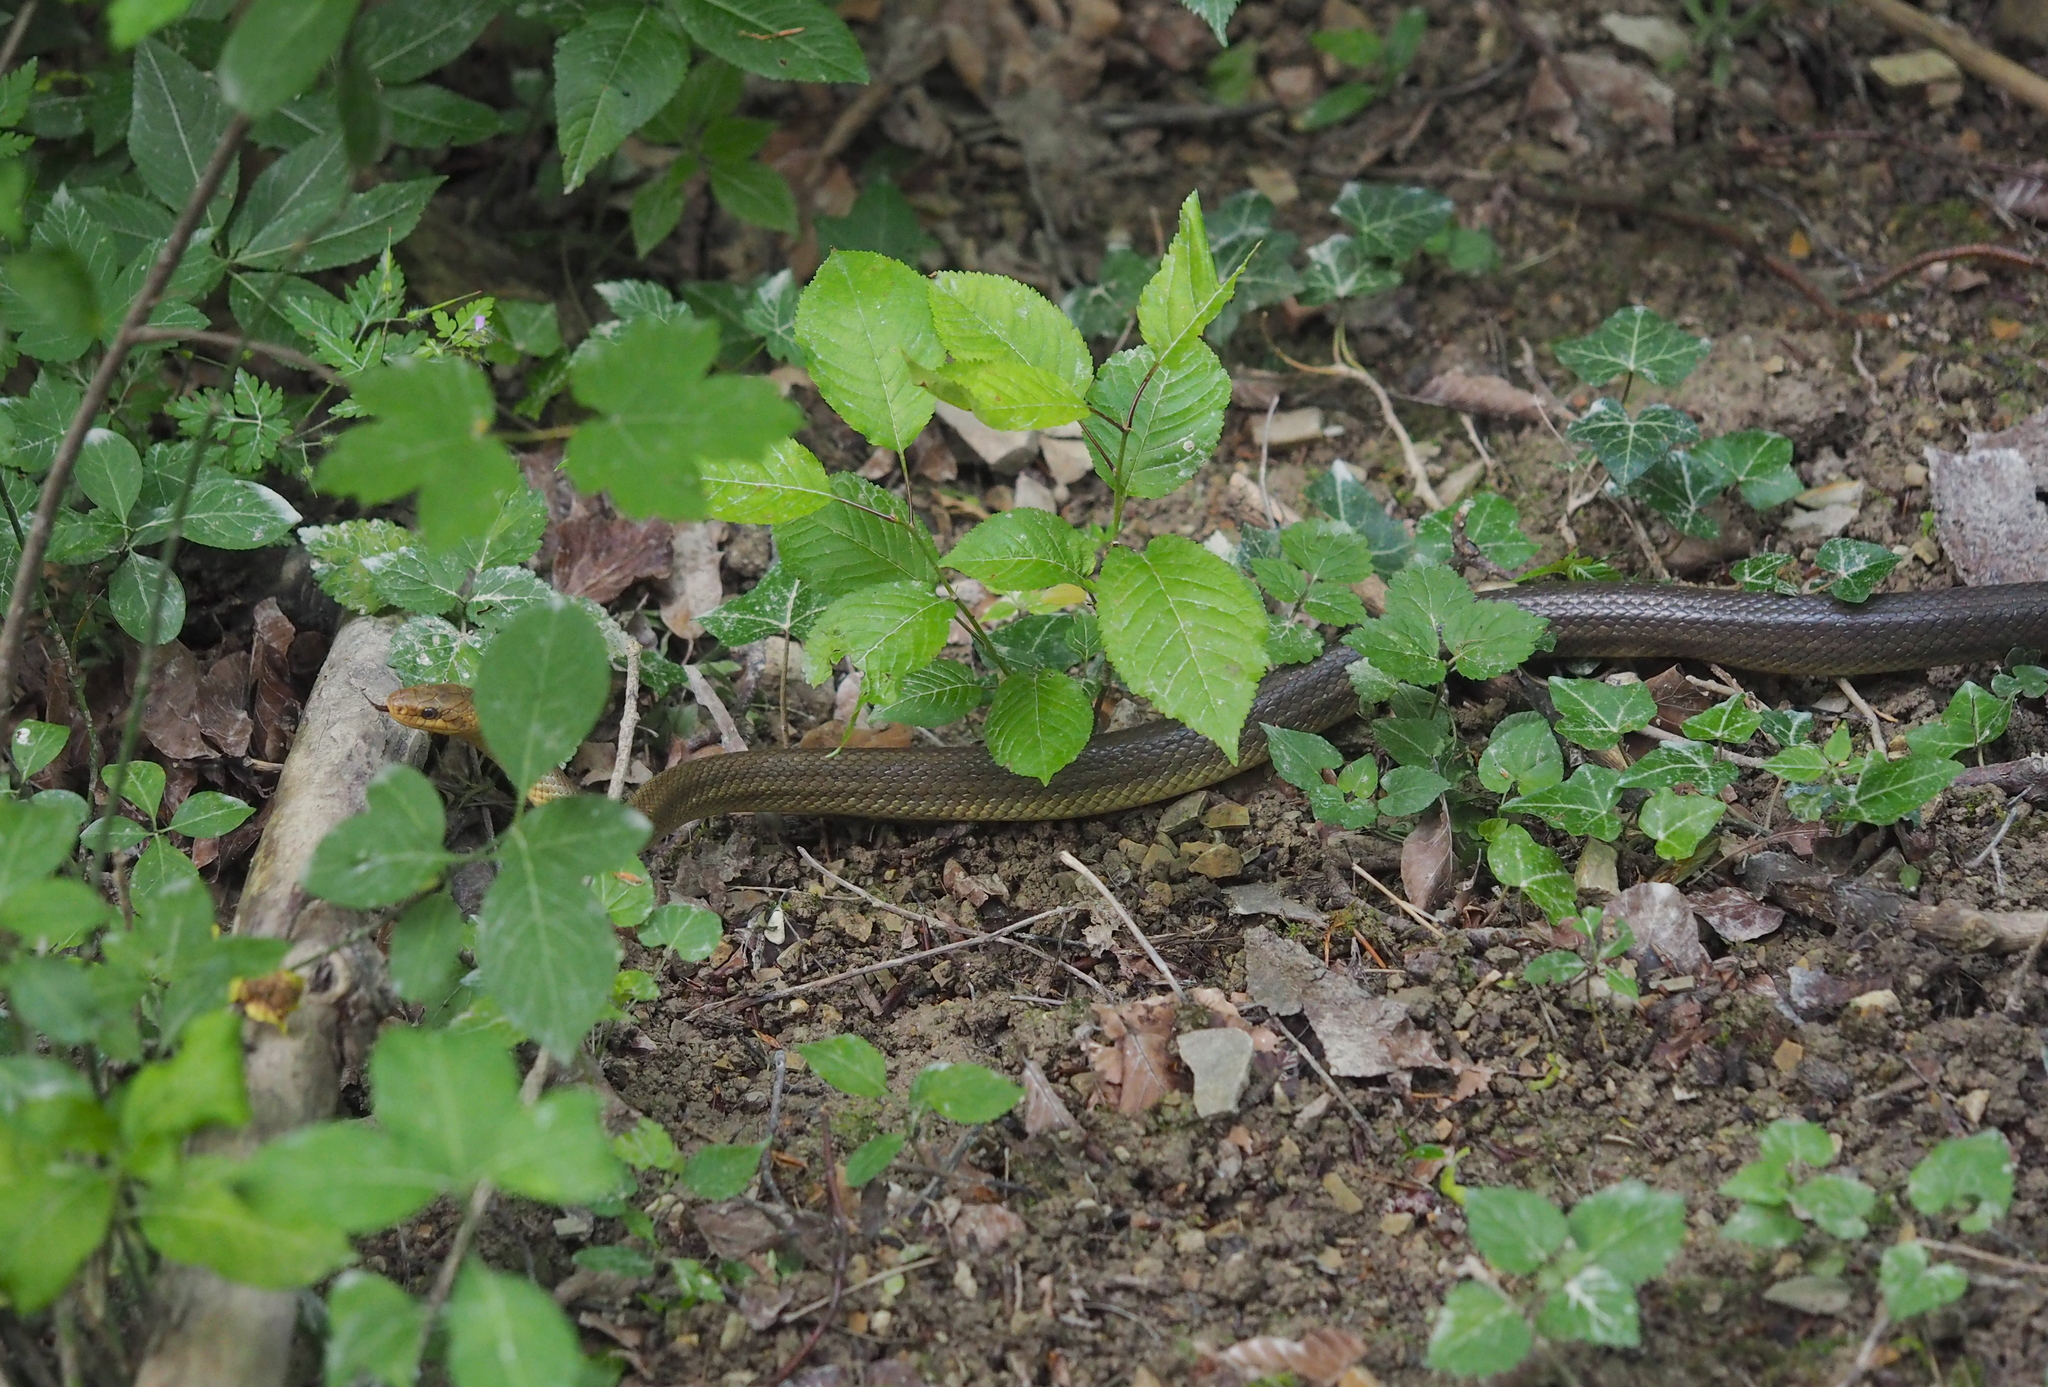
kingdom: Animalia
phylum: Chordata
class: Squamata
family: Colubridae
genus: Zamenis
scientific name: Zamenis longissimus
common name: Aesculapean snake
